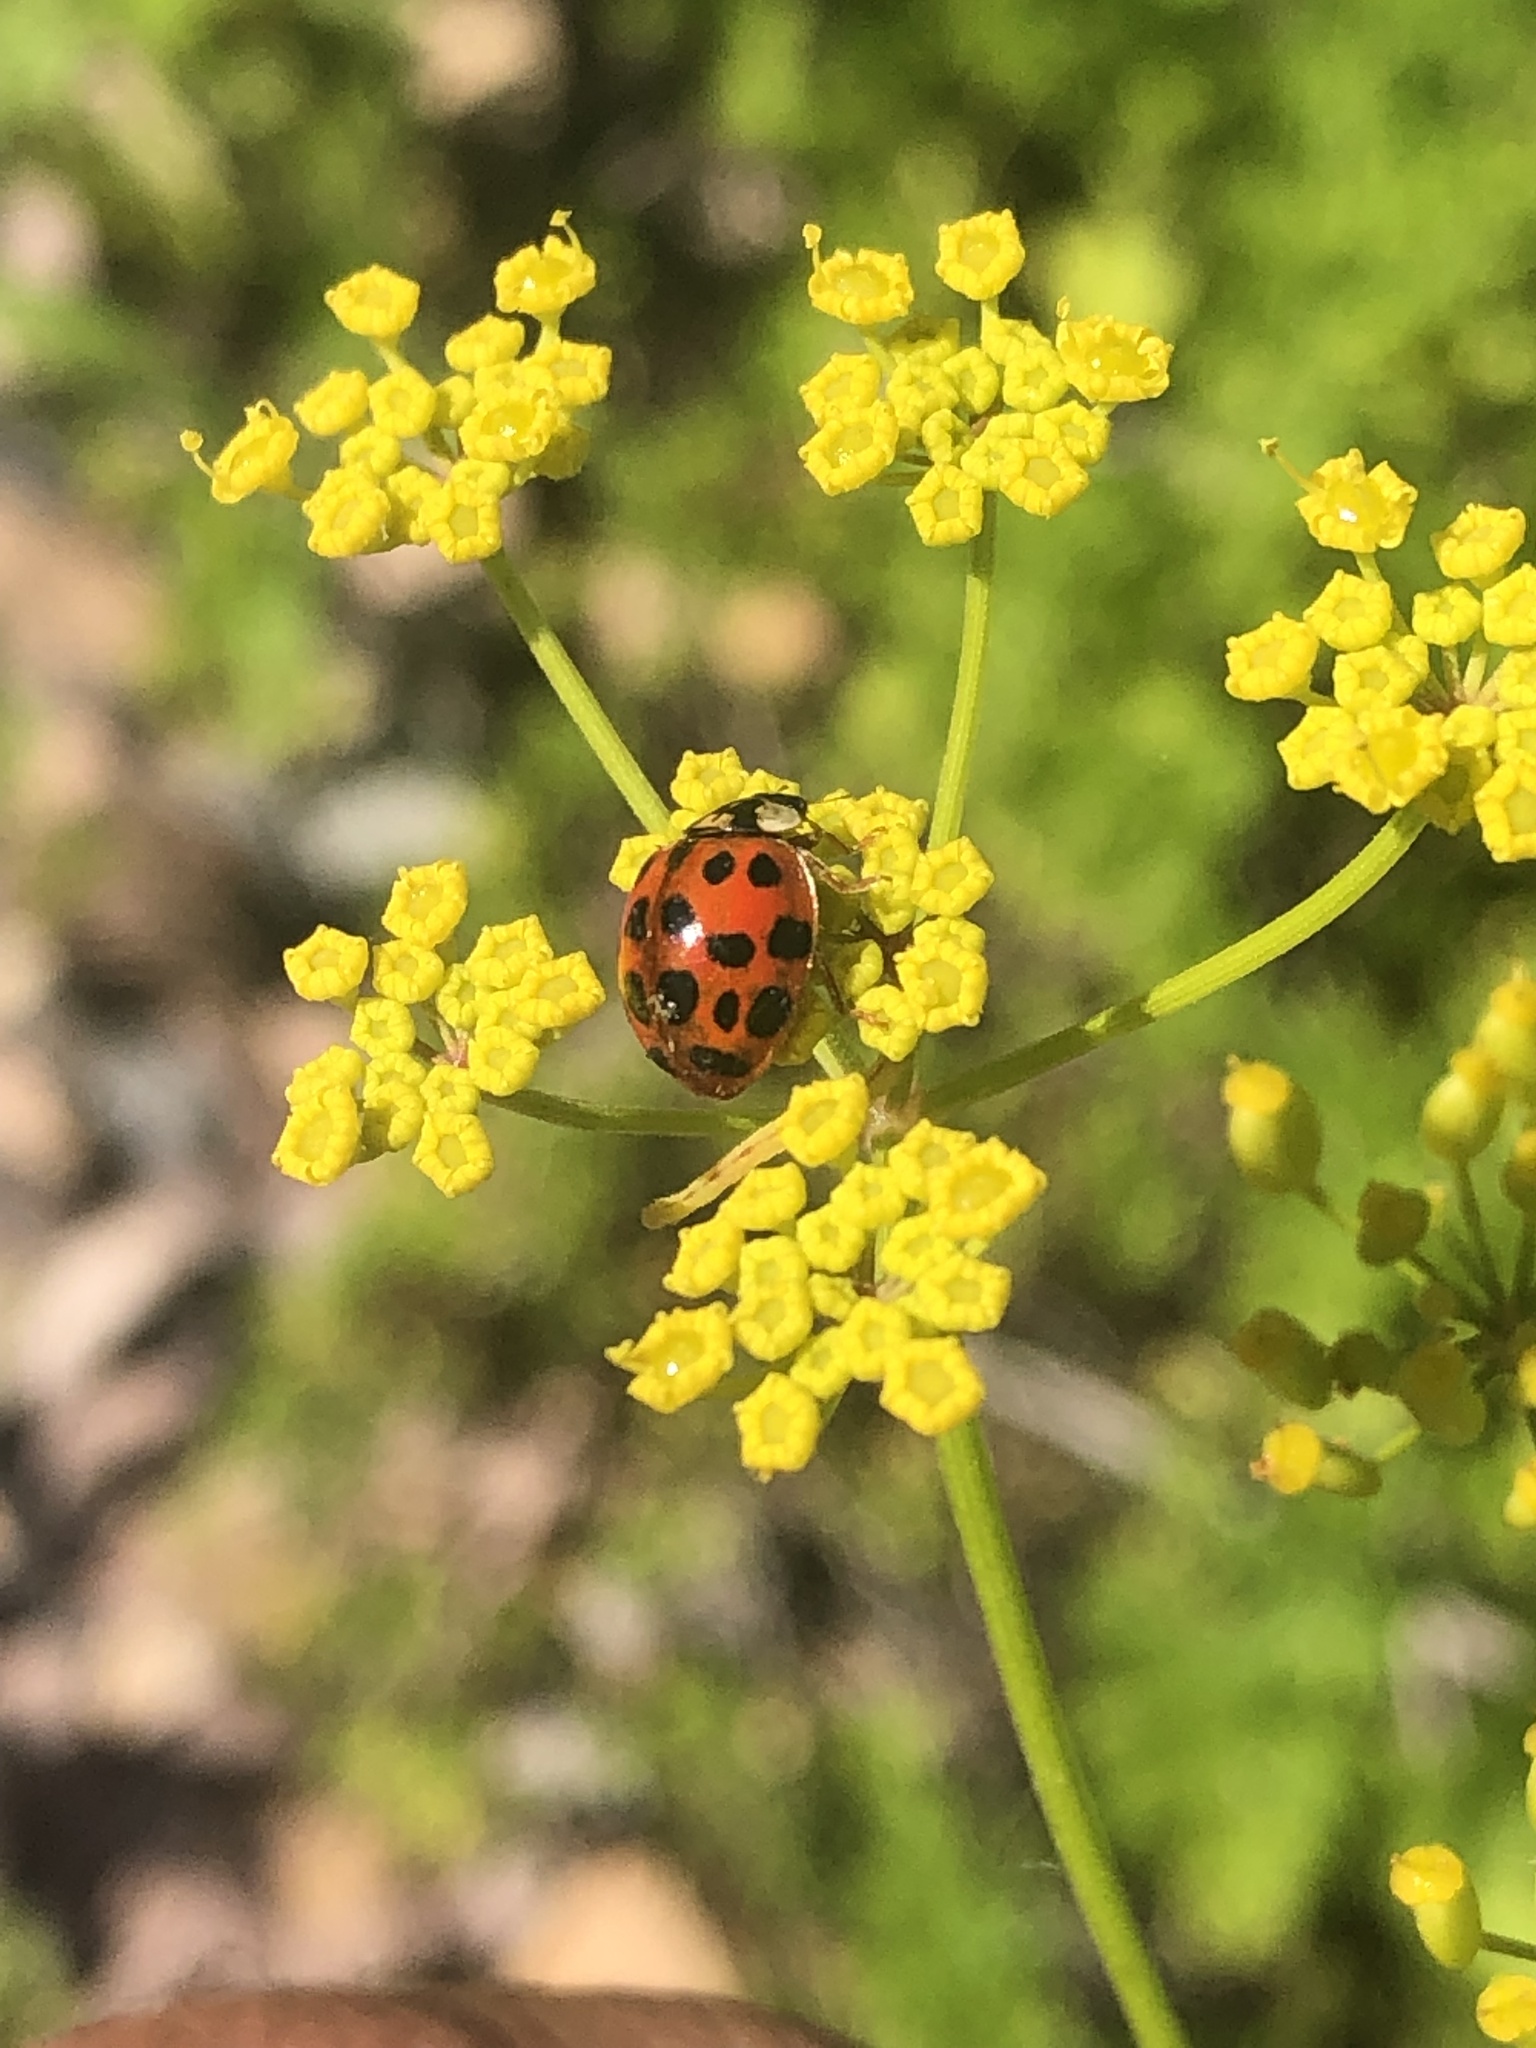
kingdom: Animalia
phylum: Arthropoda
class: Insecta
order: Coleoptera
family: Coccinellidae
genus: Harmonia
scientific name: Harmonia axyridis
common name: Harlequin ladybird
